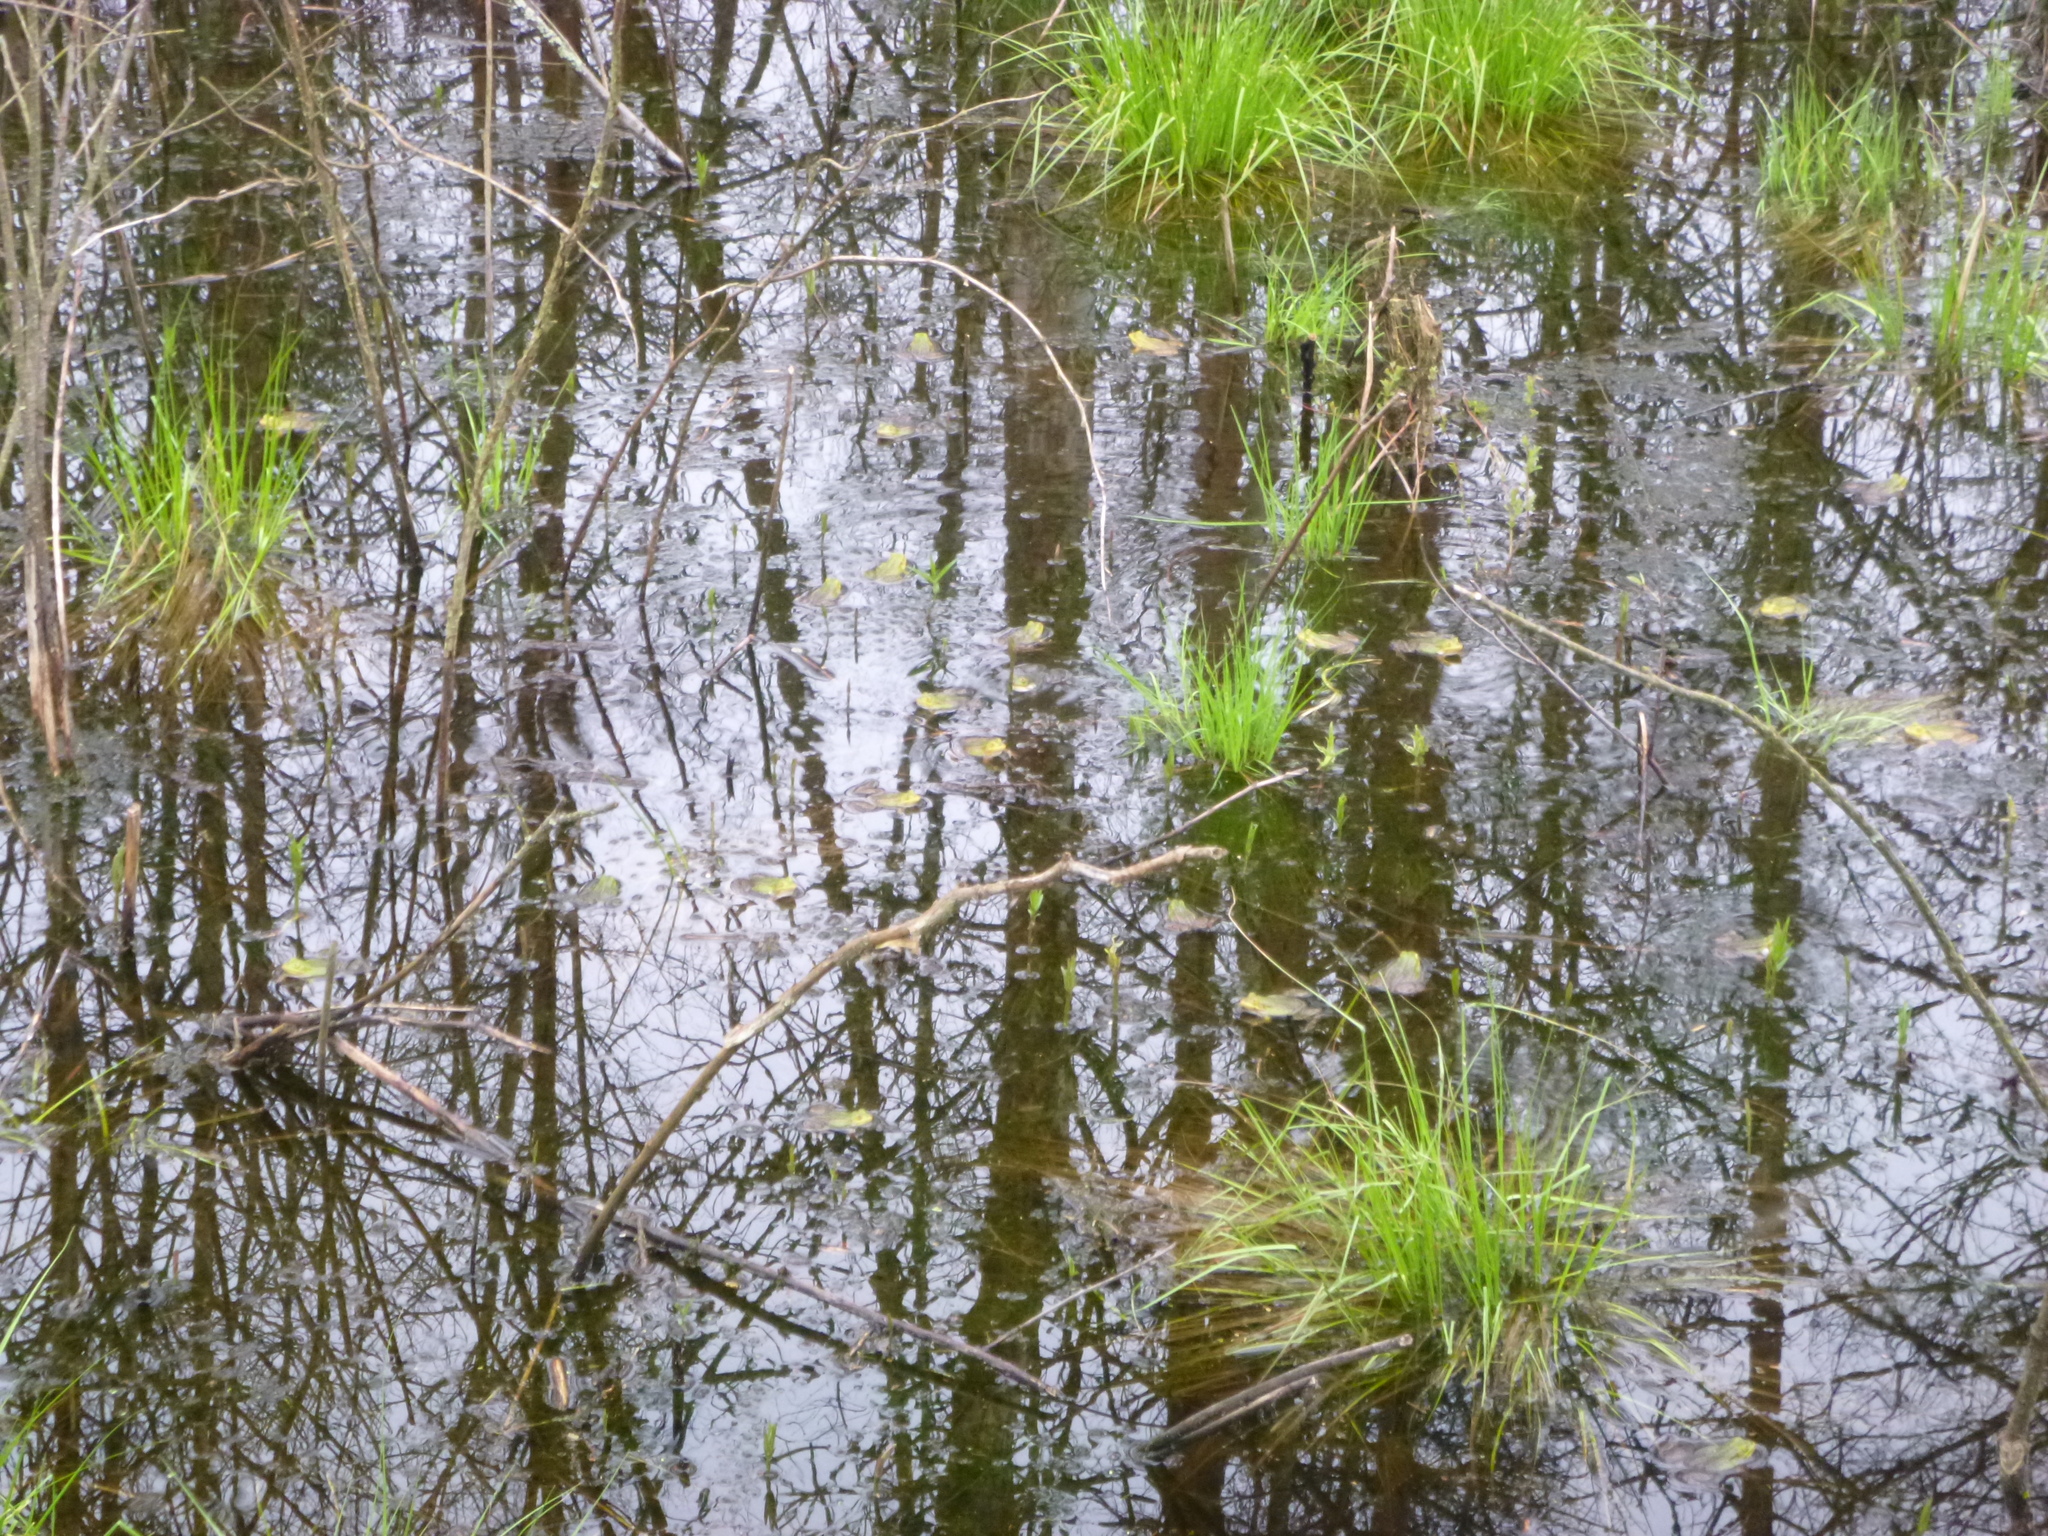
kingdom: Animalia
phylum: Chordata
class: Amphibia
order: Anura
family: Ranidae
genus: Pelophylax
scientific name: Pelophylax
